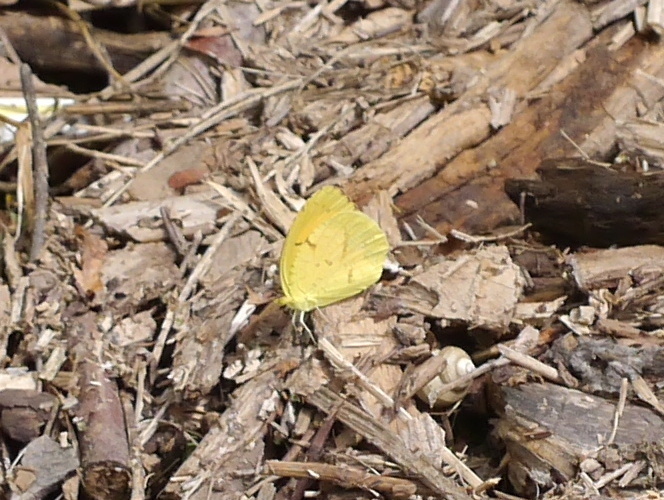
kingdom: Animalia
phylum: Arthropoda
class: Insecta
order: Lepidoptera
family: Pieridae
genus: Abaeis
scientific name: Abaeis nicippe
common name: Sleepy orange
